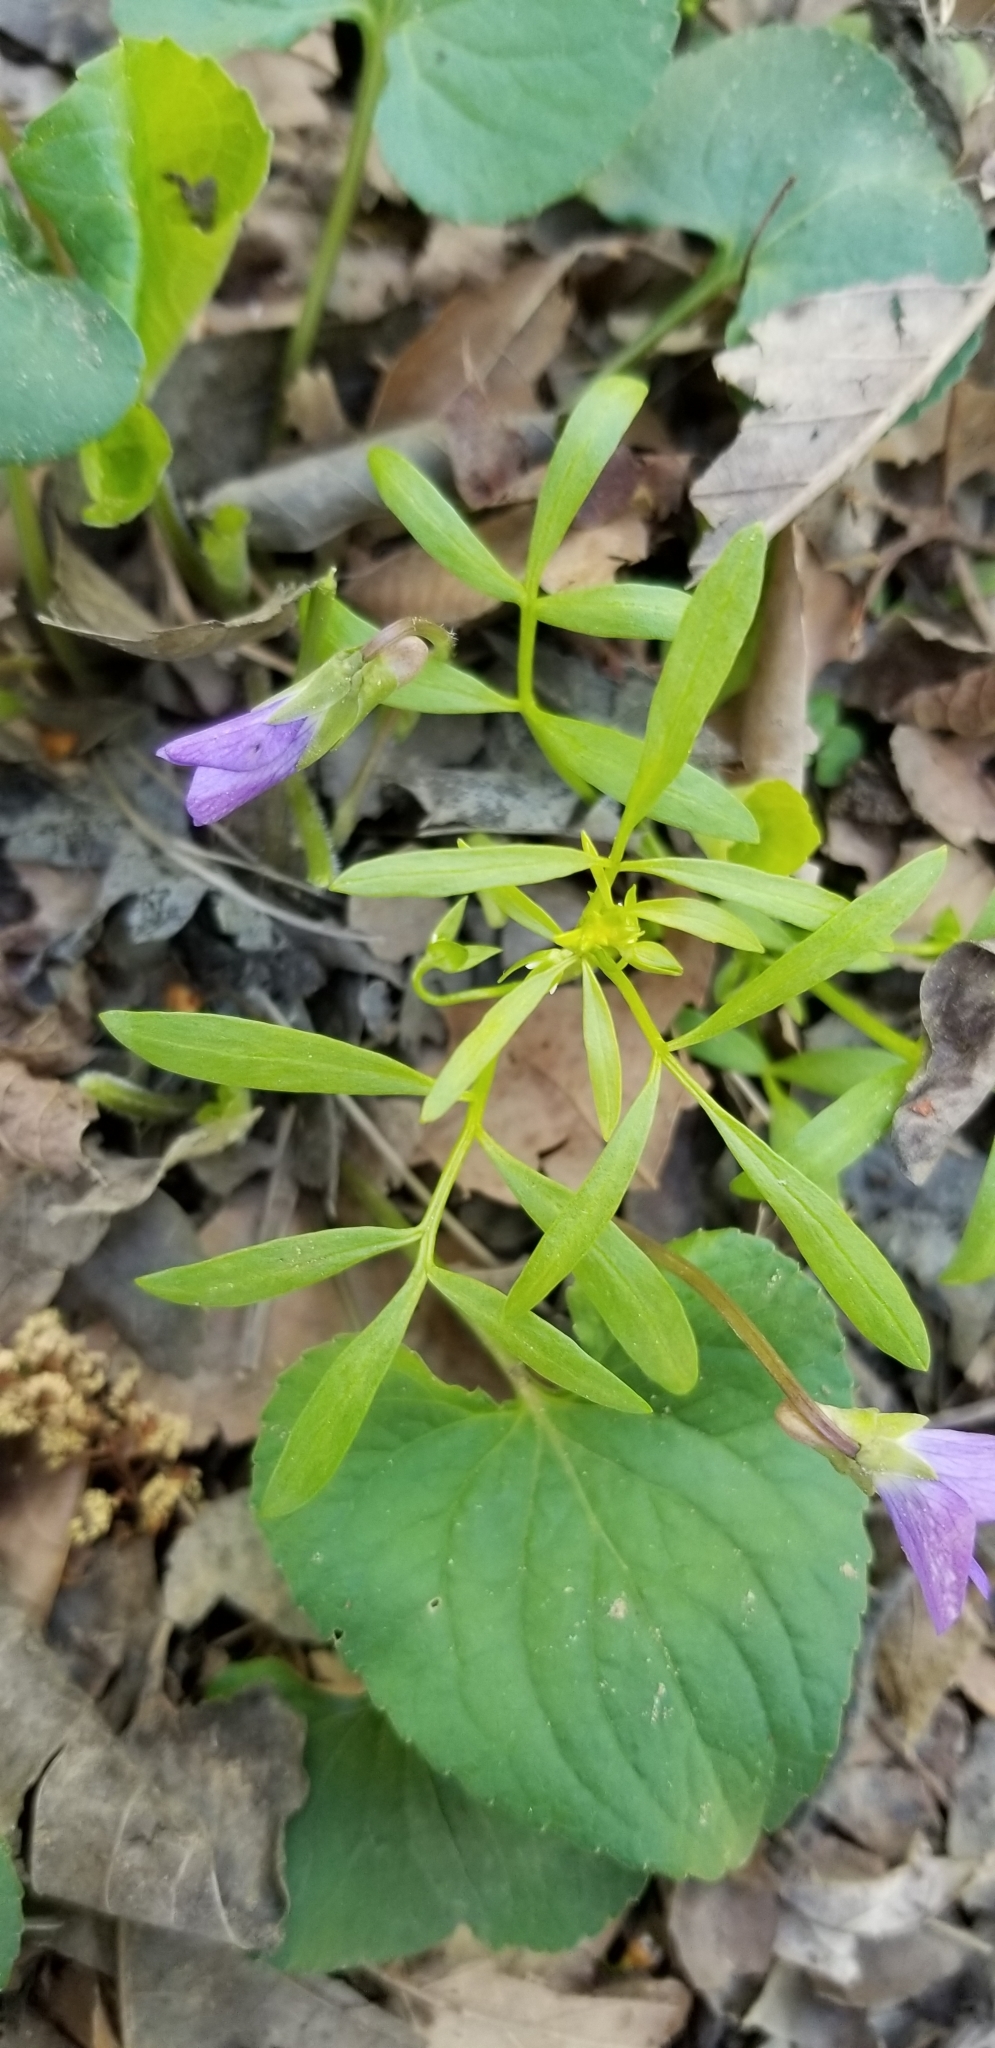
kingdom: Plantae
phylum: Tracheophyta
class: Magnoliopsida
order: Brassicales
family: Limnanthaceae
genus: Floerkea
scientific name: Floerkea proserpinacoides
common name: False mermaid
